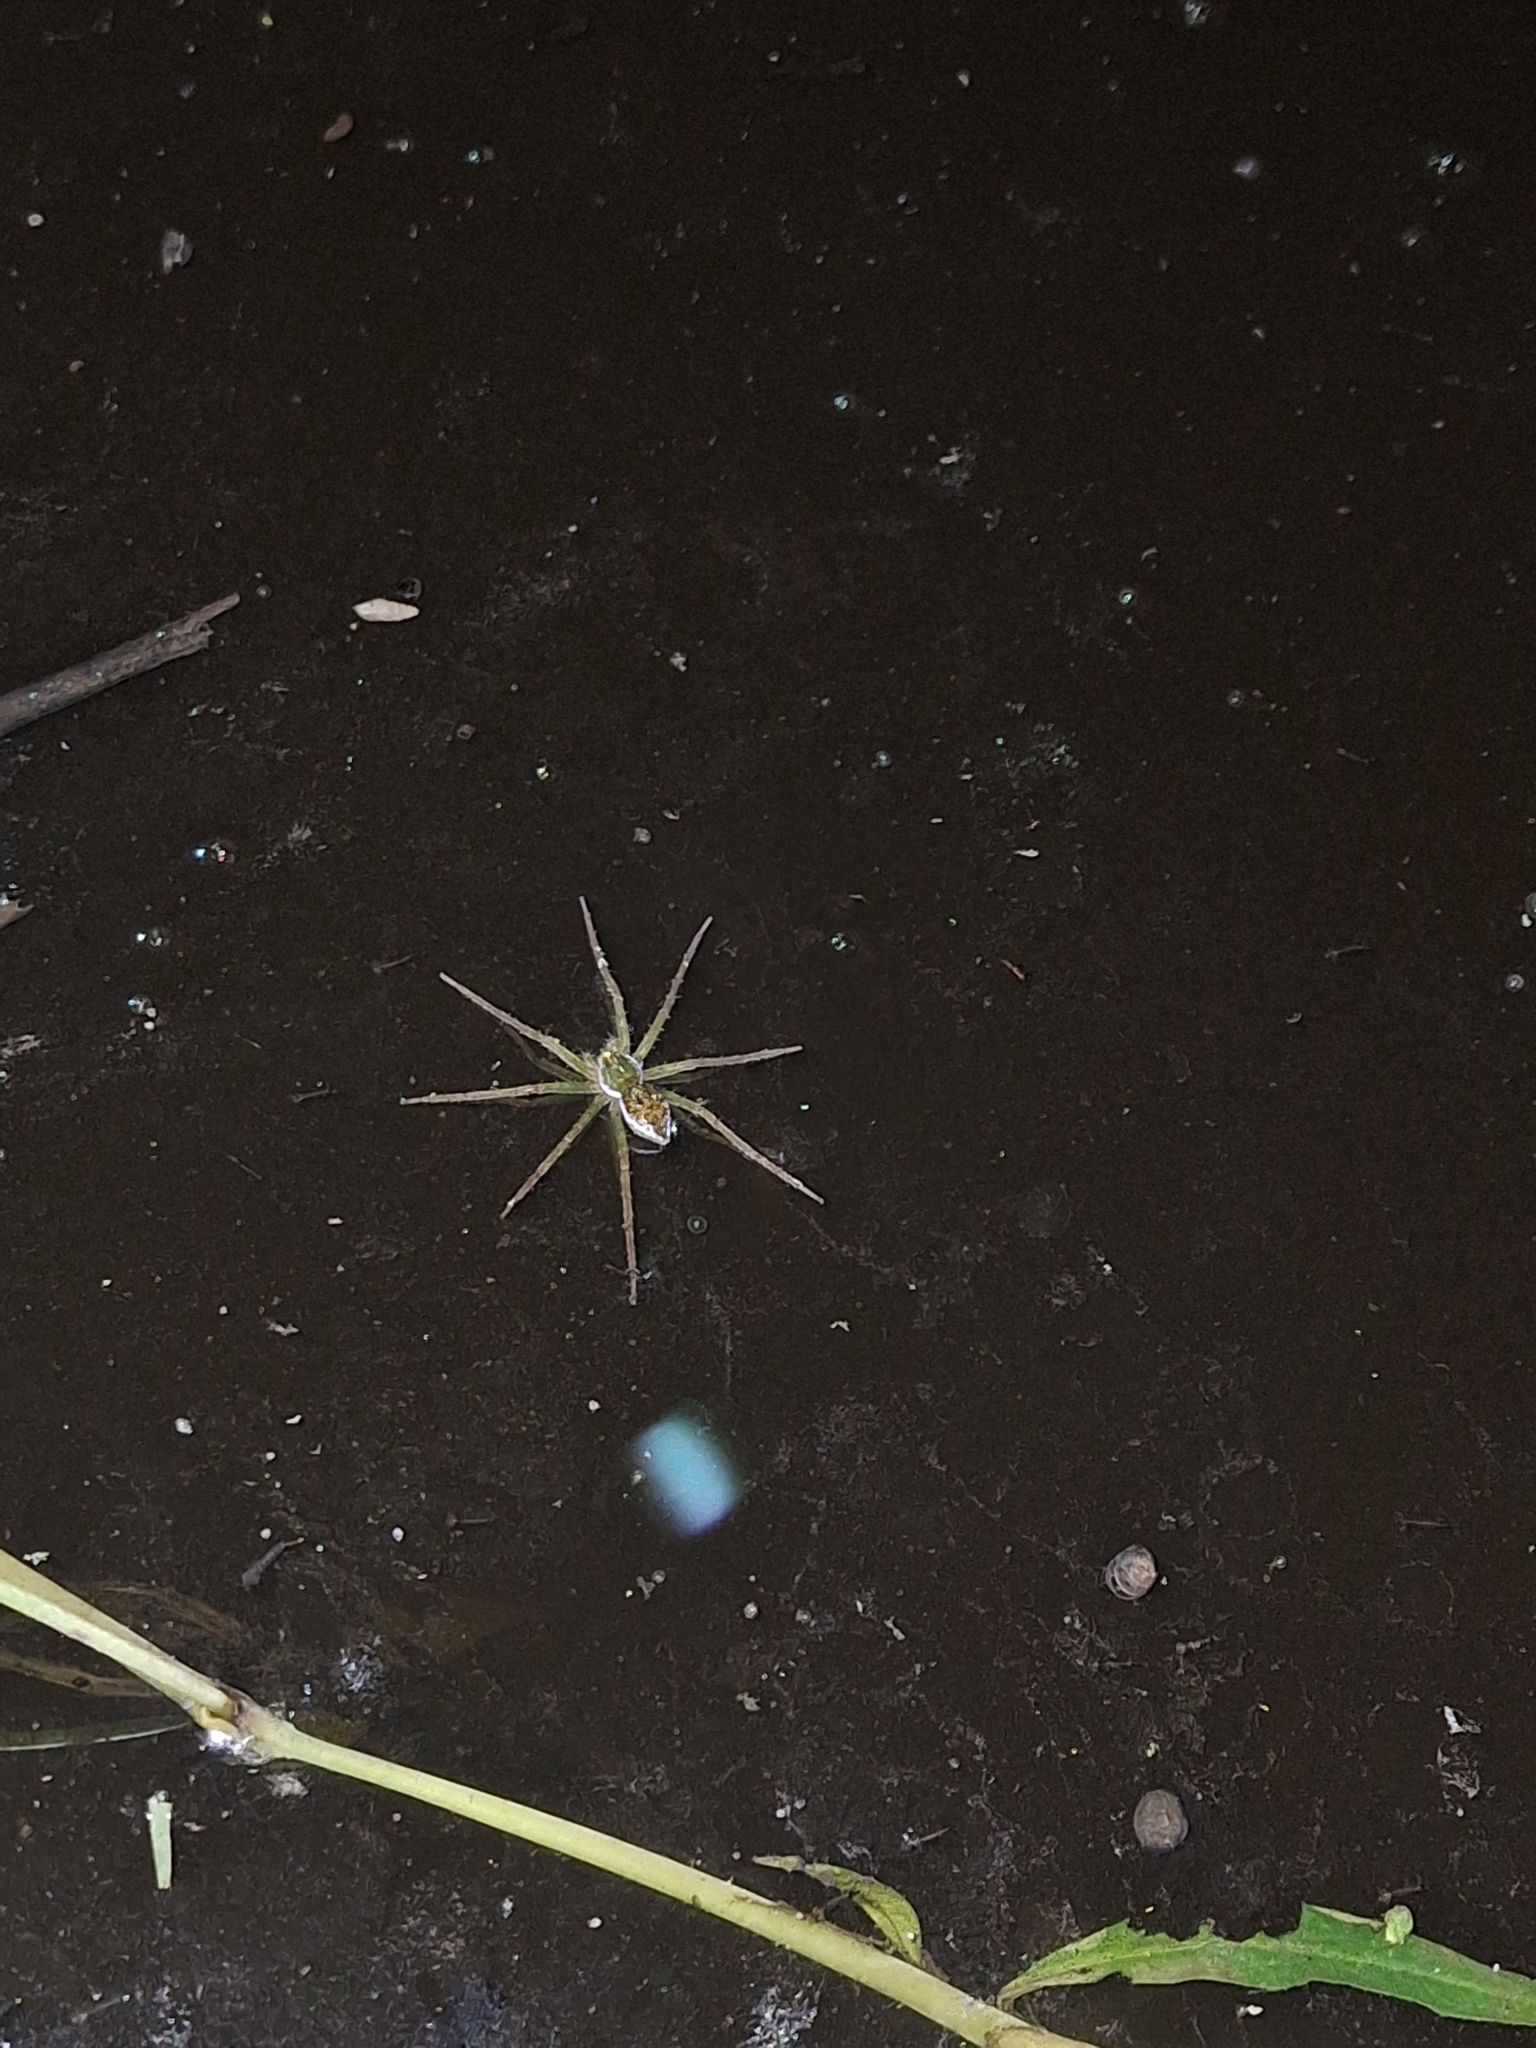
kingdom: Animalia
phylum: Arthropoda
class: Arachnida
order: Araneae
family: Pisauridae
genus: Thaumasia
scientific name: Thaumasia velox
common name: Nursery web spiders
